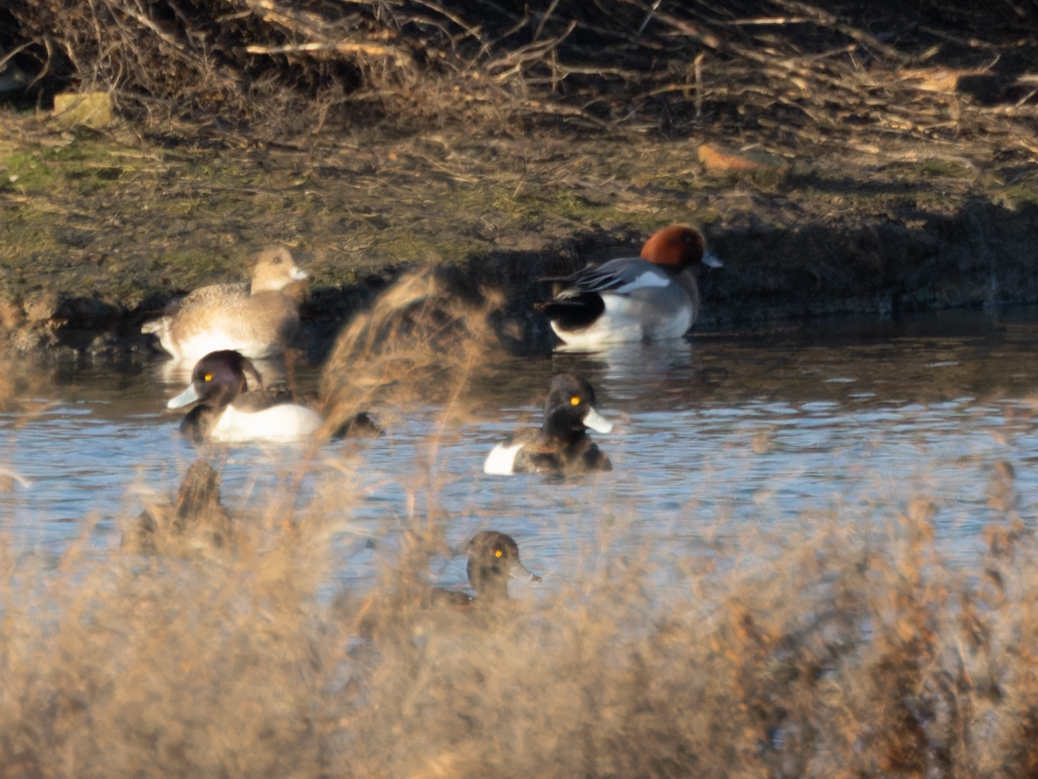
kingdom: Animalia
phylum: Chordata
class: Aves
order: Anseriformes
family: Anatidae
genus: Mareca
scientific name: Mareca penelope
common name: Eurasian wigeon
